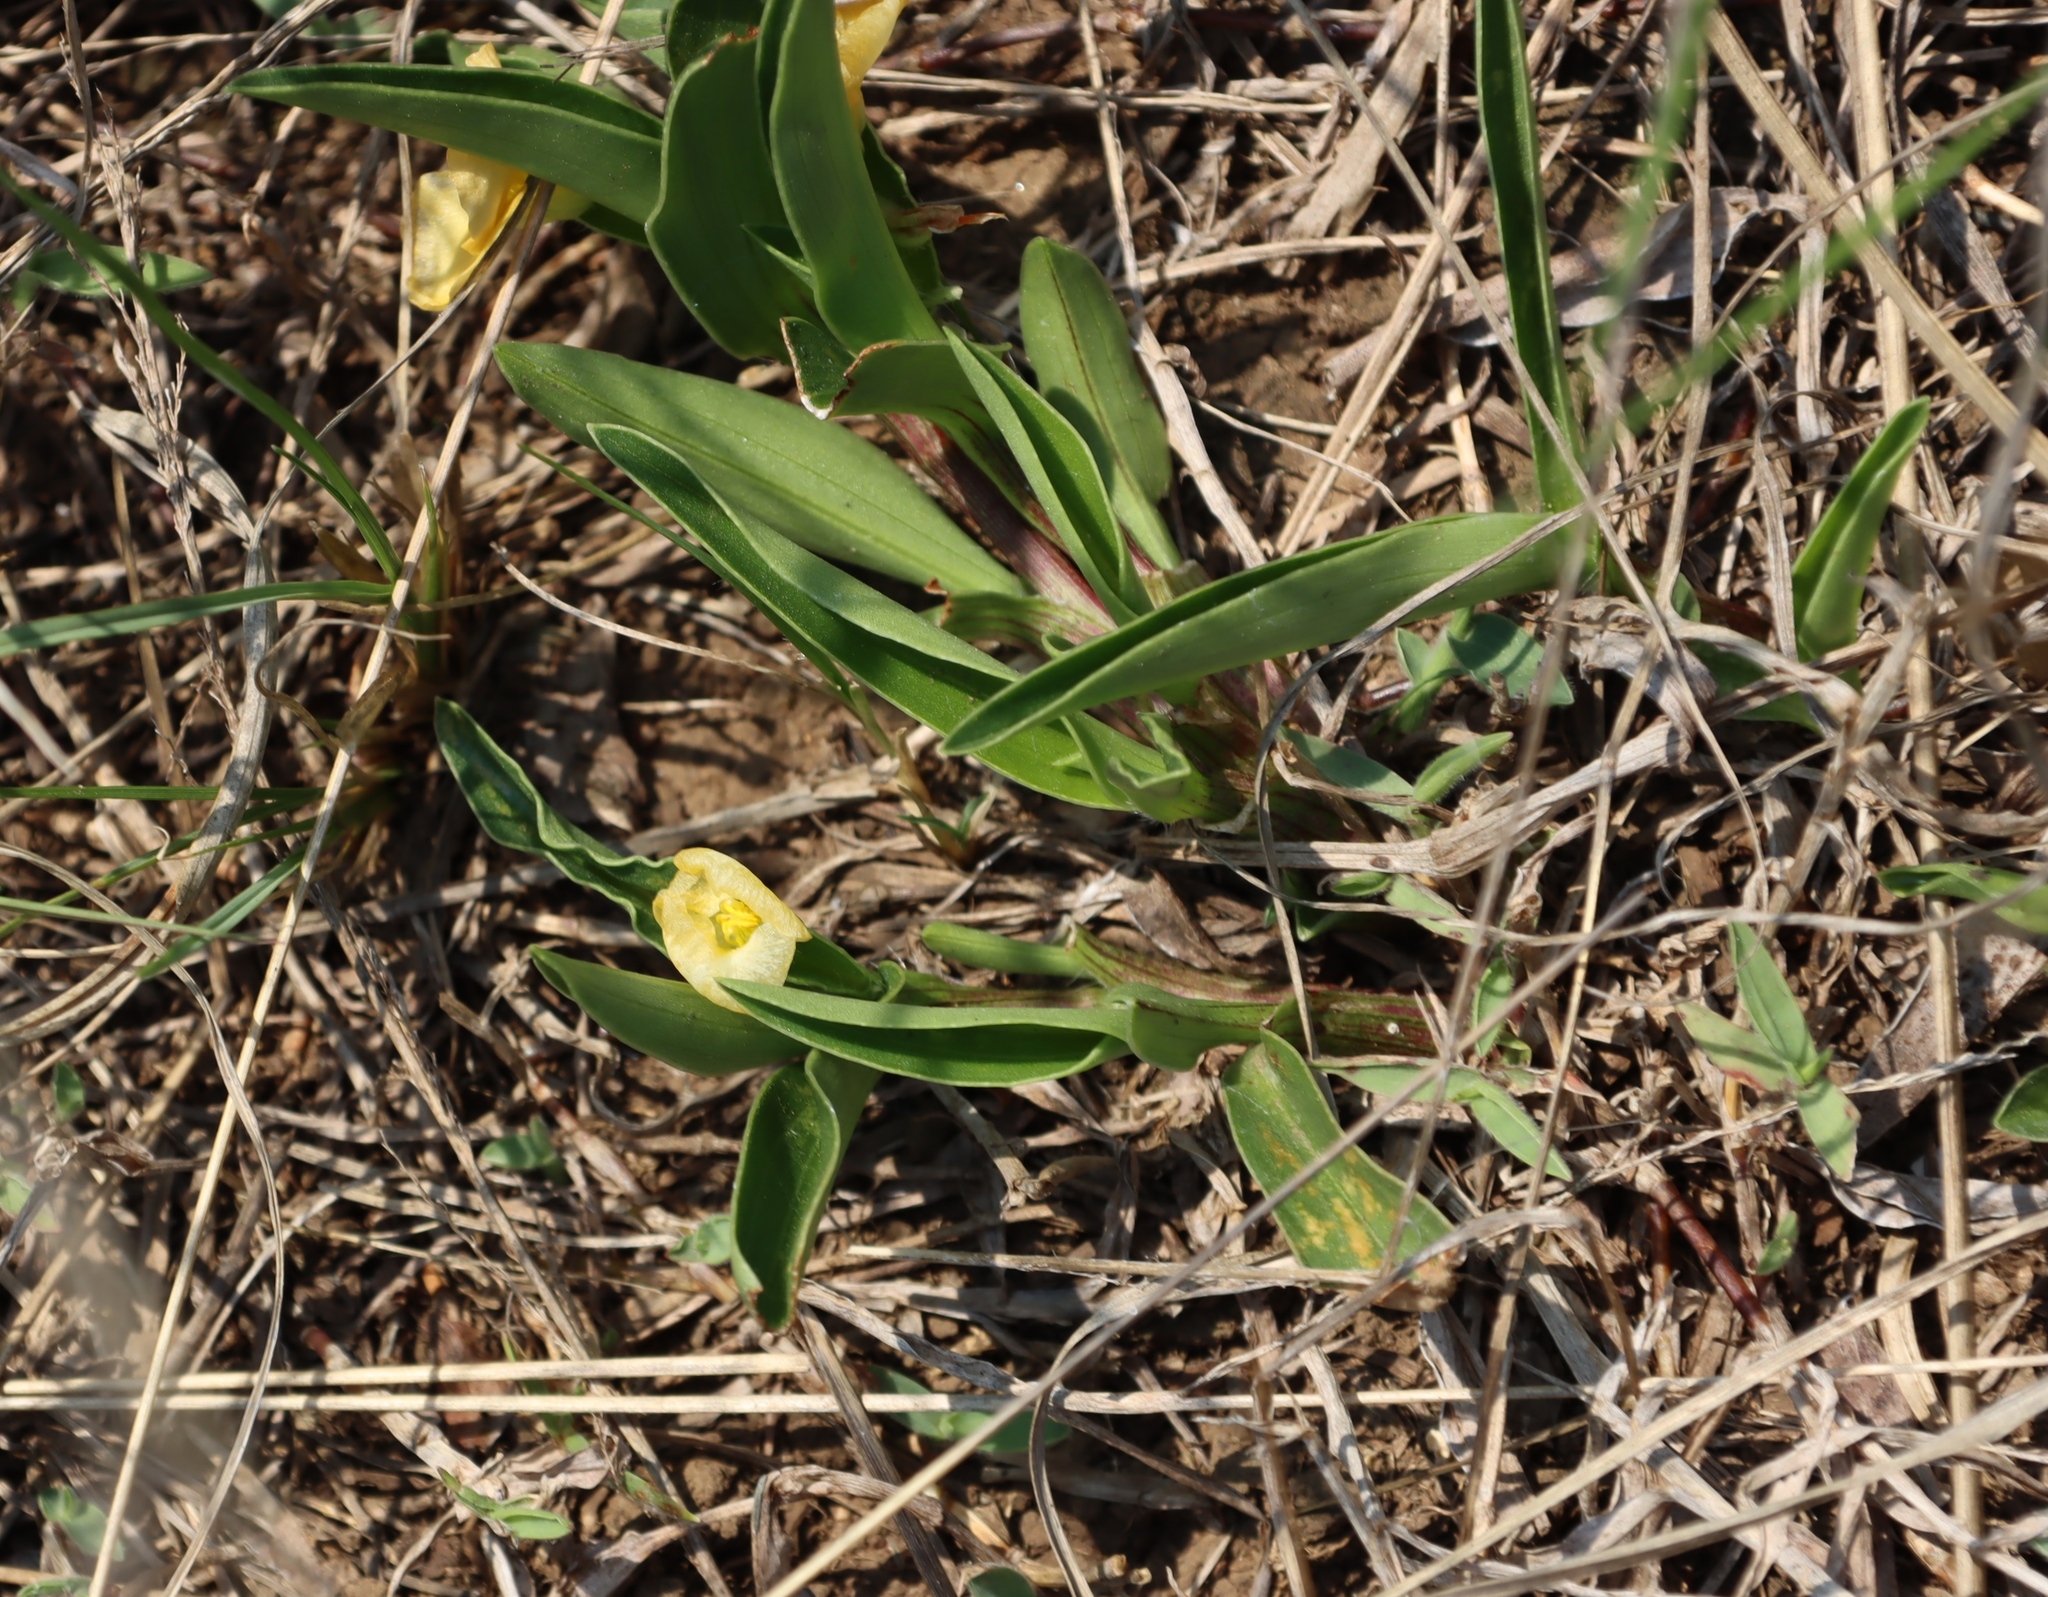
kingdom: Plantae
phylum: Tracheophyta
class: Liliopsida
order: Commelinales
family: Commelinaceae
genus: Commelina
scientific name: Commelina africana
